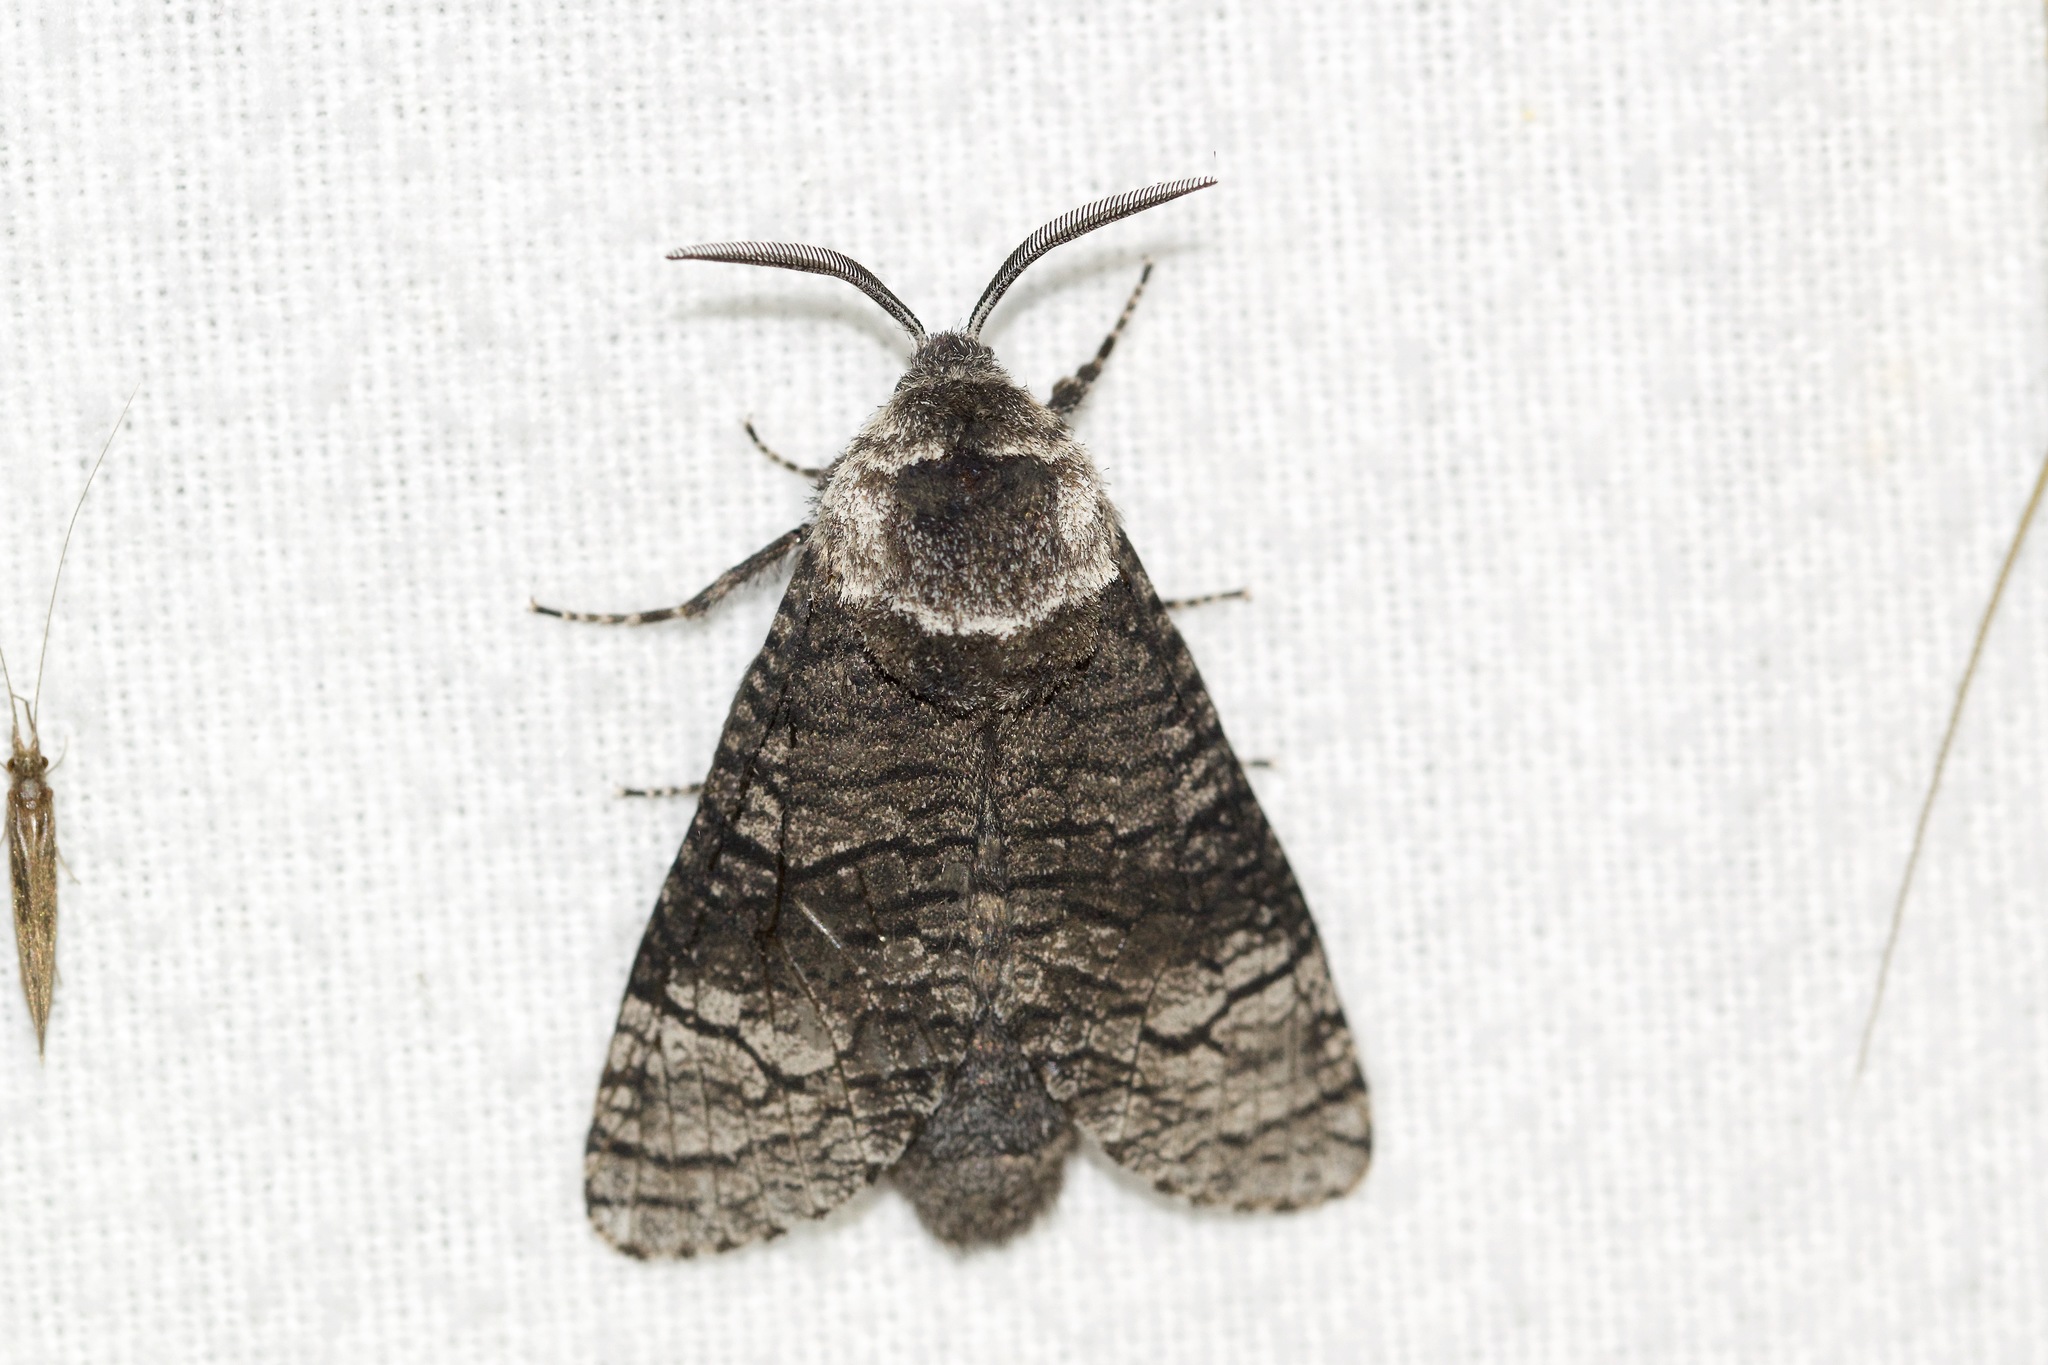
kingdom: Animalia
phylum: Arthropoda
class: Insecta
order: Lepidoptera
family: Cossidae
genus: Acossus
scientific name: Acossus centerensis
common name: Poplar carpenterworm moth
